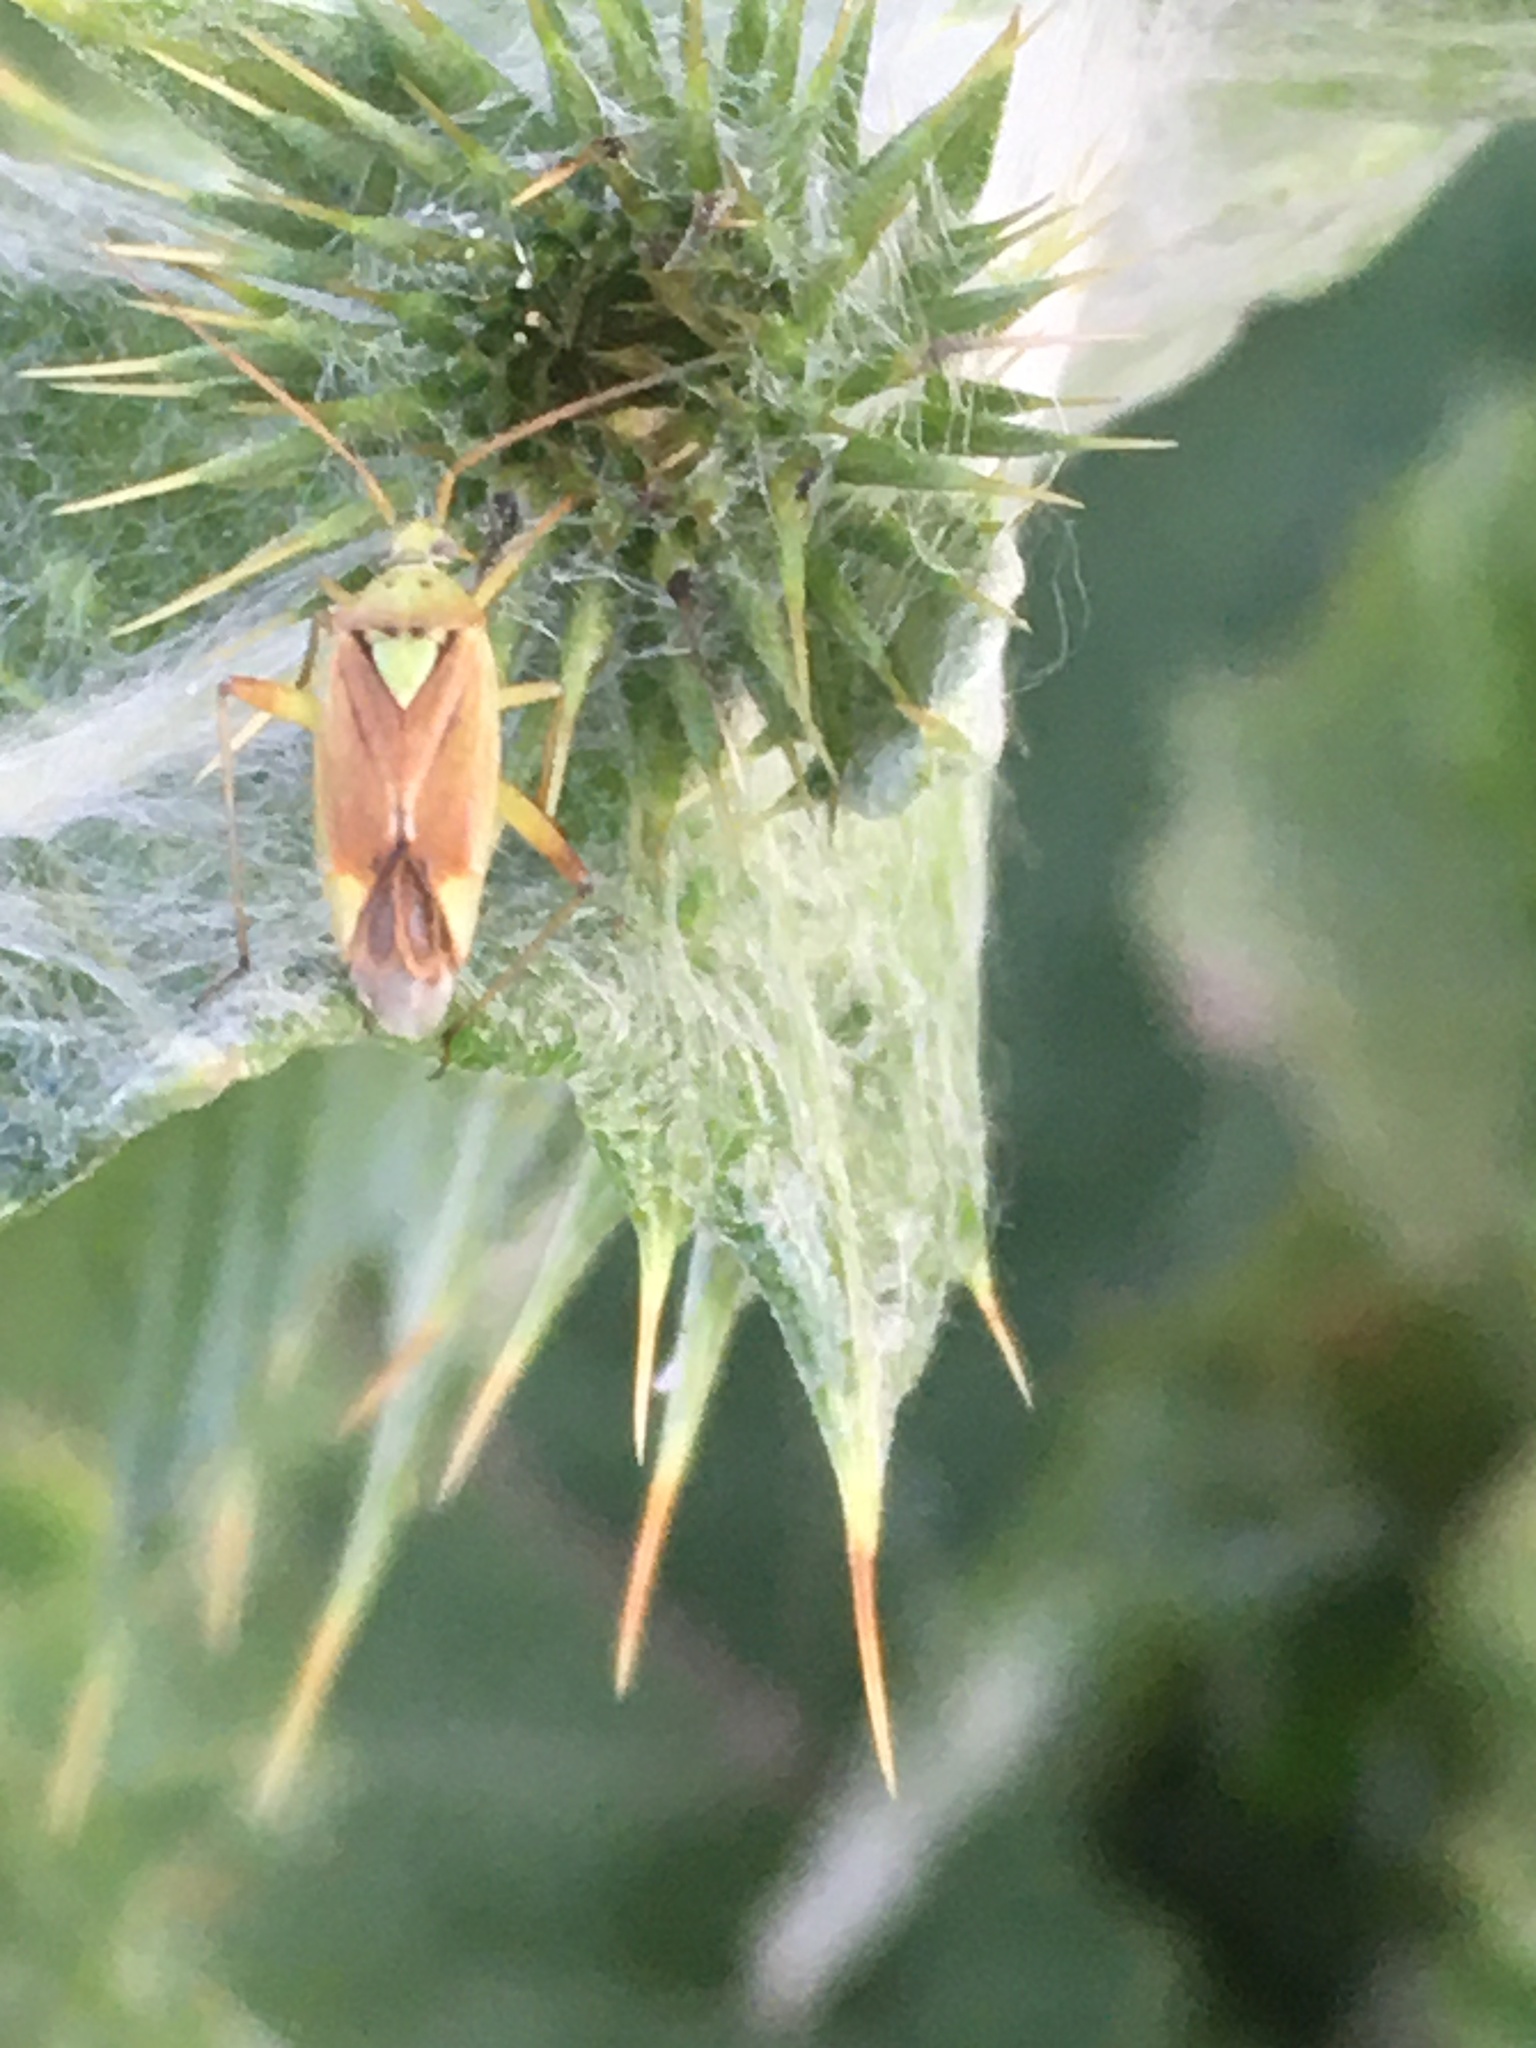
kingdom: Animalia
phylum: Arthropoda
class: Insecta
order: Hemiptera
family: Miridae
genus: Closterotomus
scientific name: Closterotomus norvegicus
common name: Plant bug
